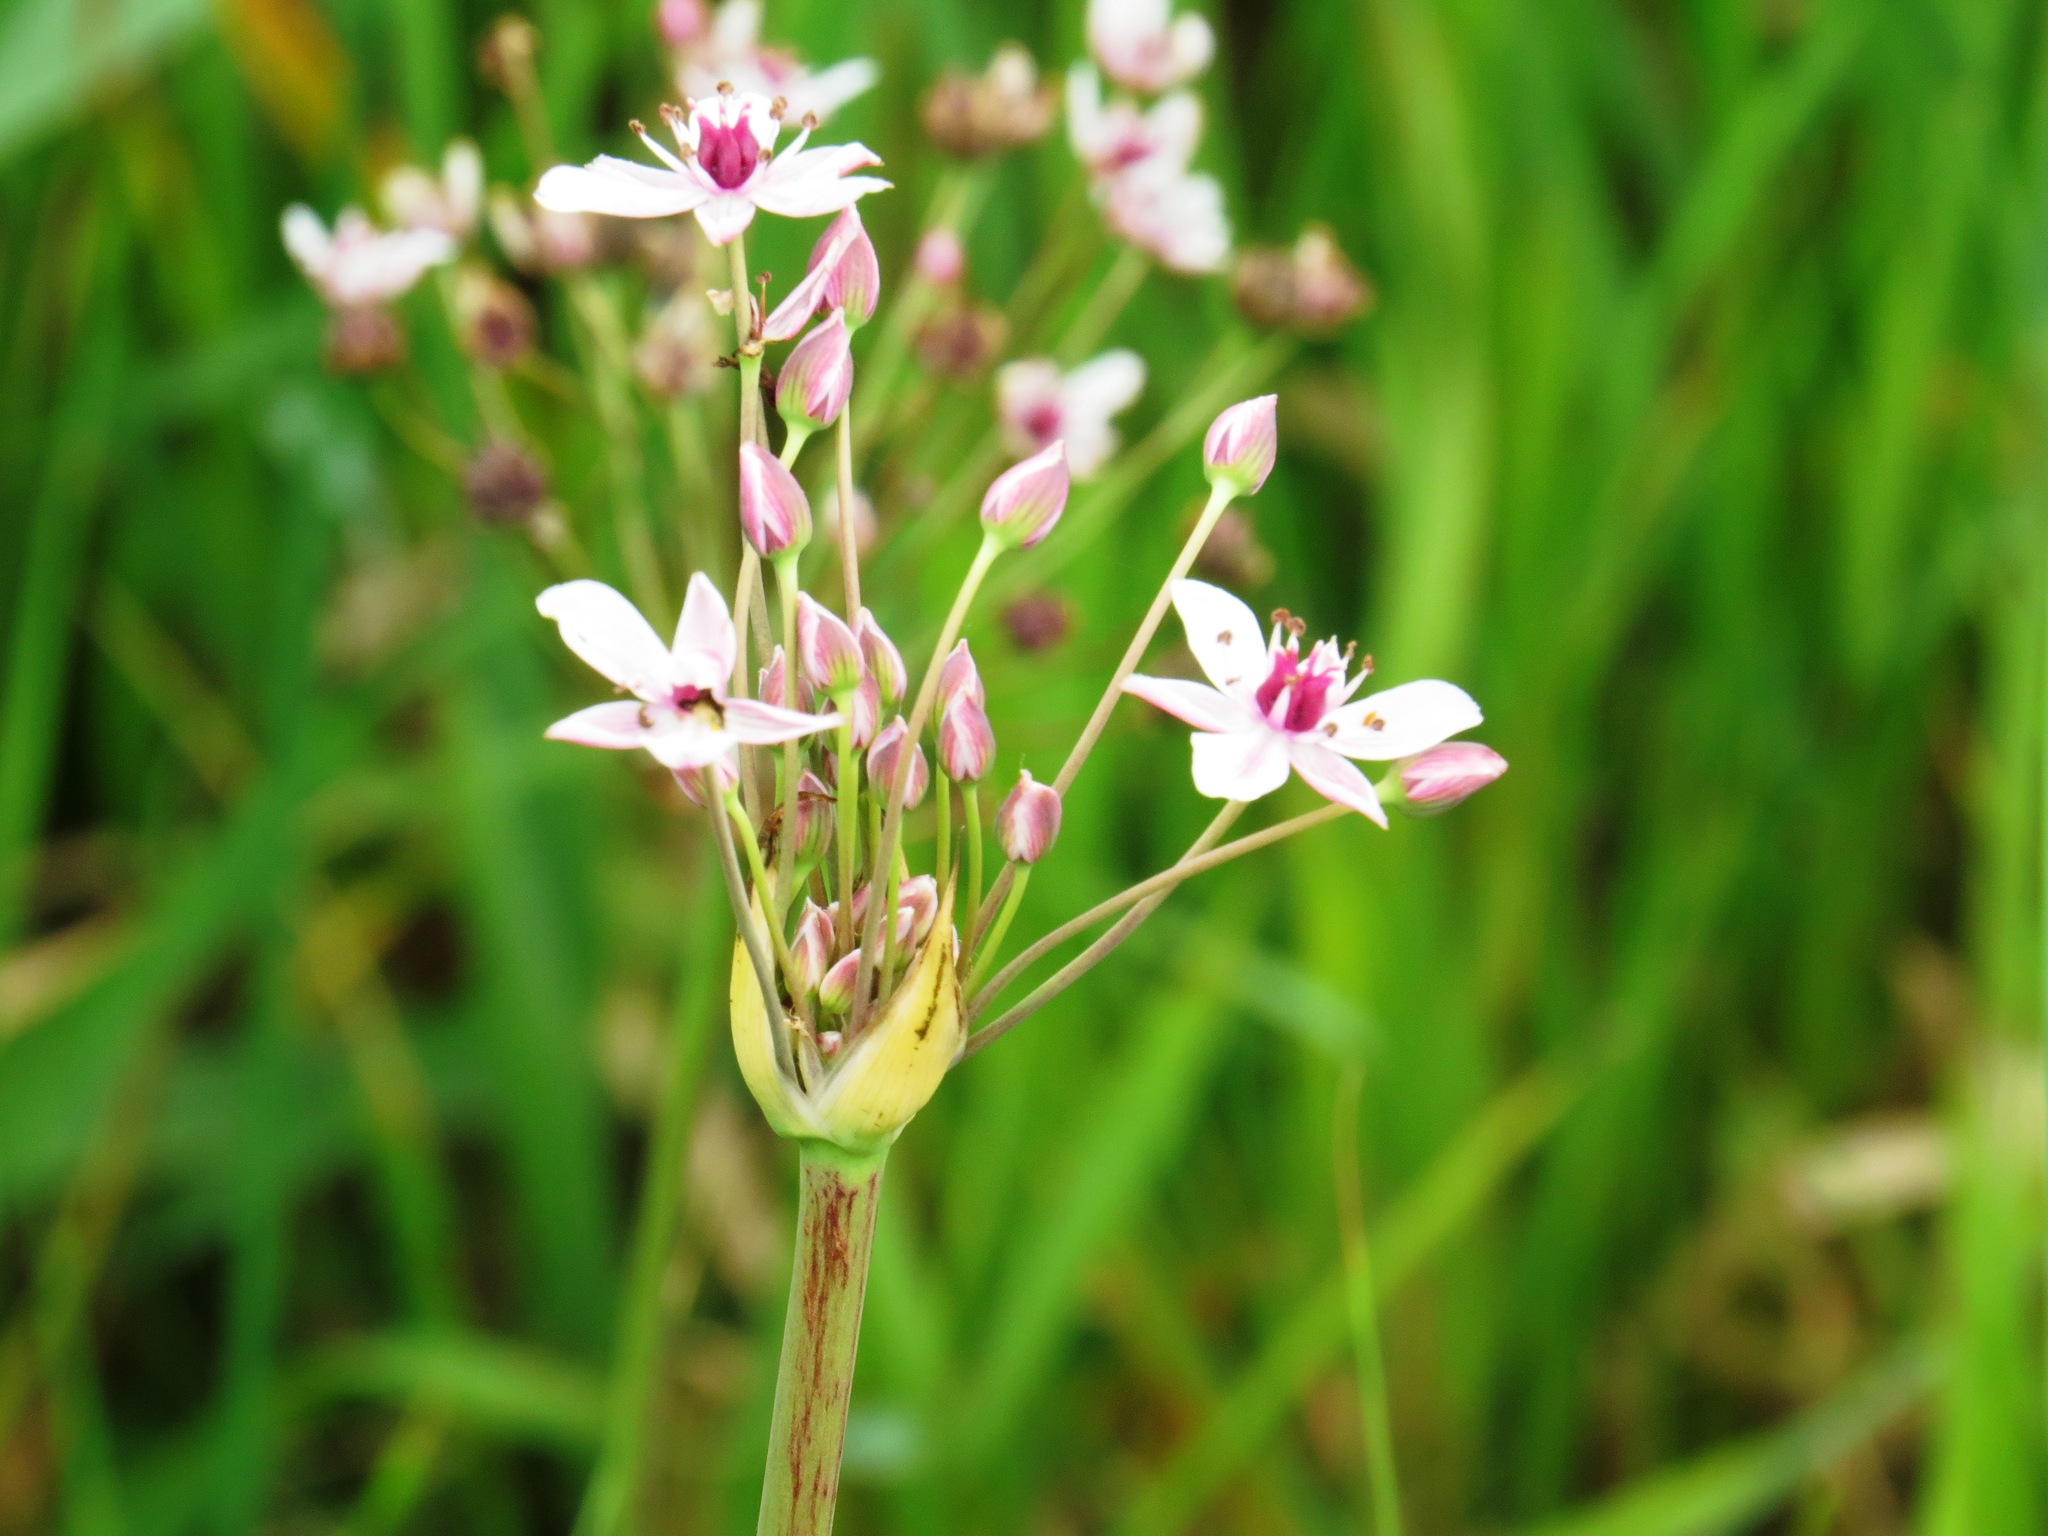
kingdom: Plantae
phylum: Tracheophyta
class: Liliopsida
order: Alismatales
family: Butomaceae
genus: Butomus
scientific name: Butomus umbellatus
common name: Flowering-rush
